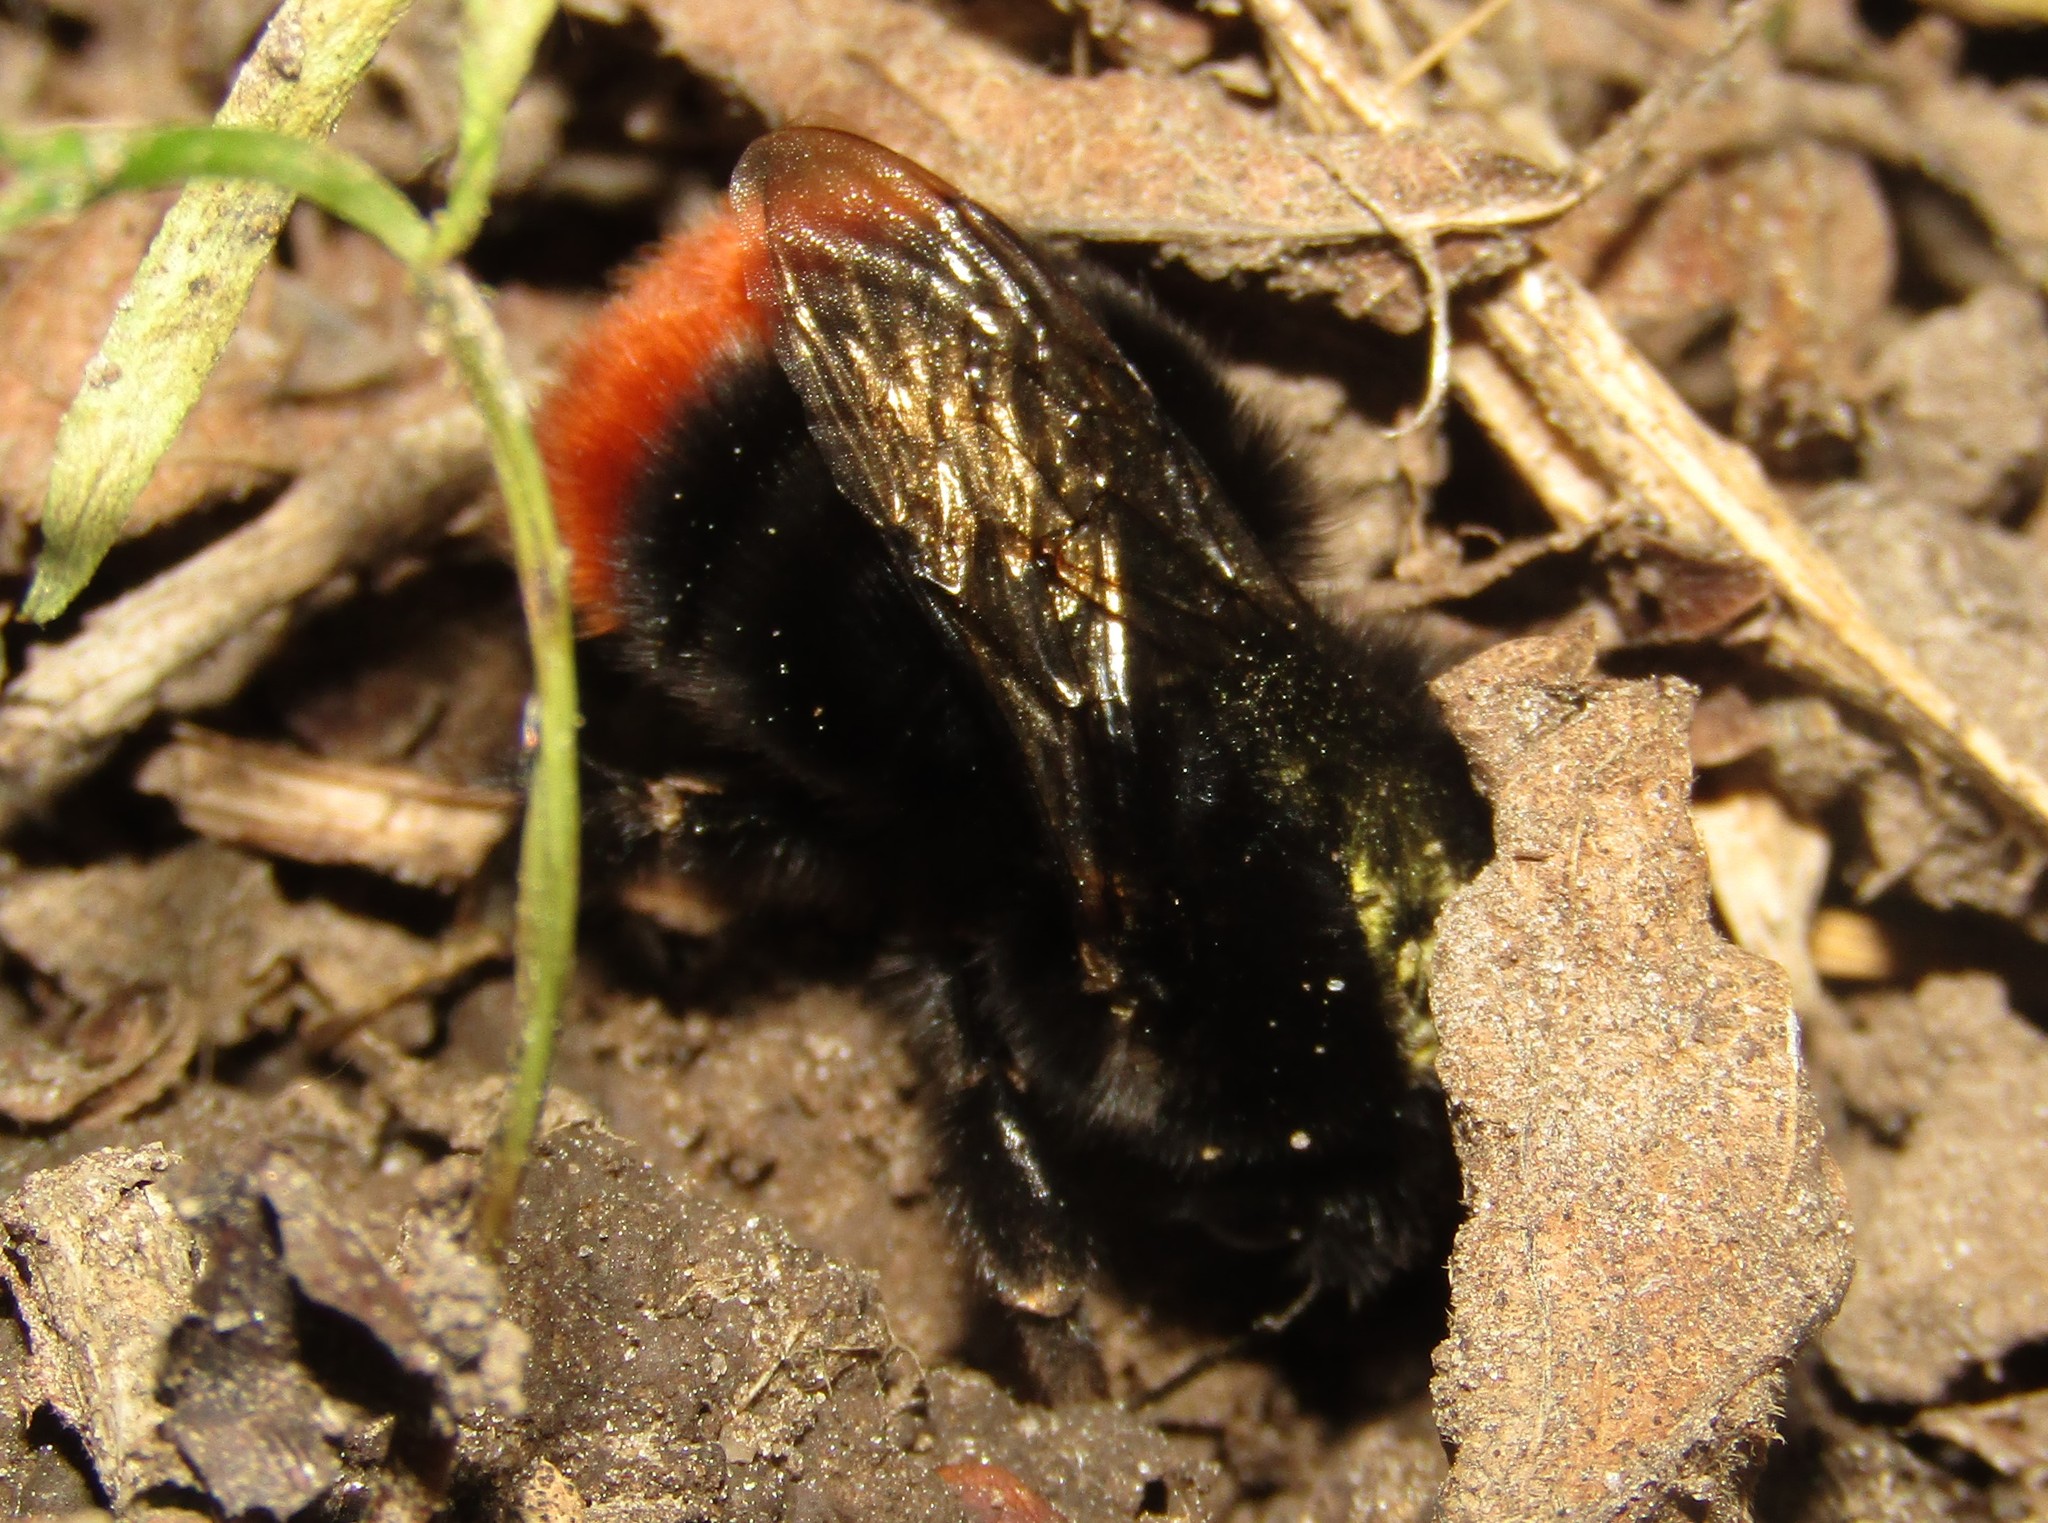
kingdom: Animalia
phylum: Arthropoda
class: Insecta
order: Hymenoptera
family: Apidae
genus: Bombus
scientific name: Bombus lapidarius
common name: Large red-tailed humble-bee
